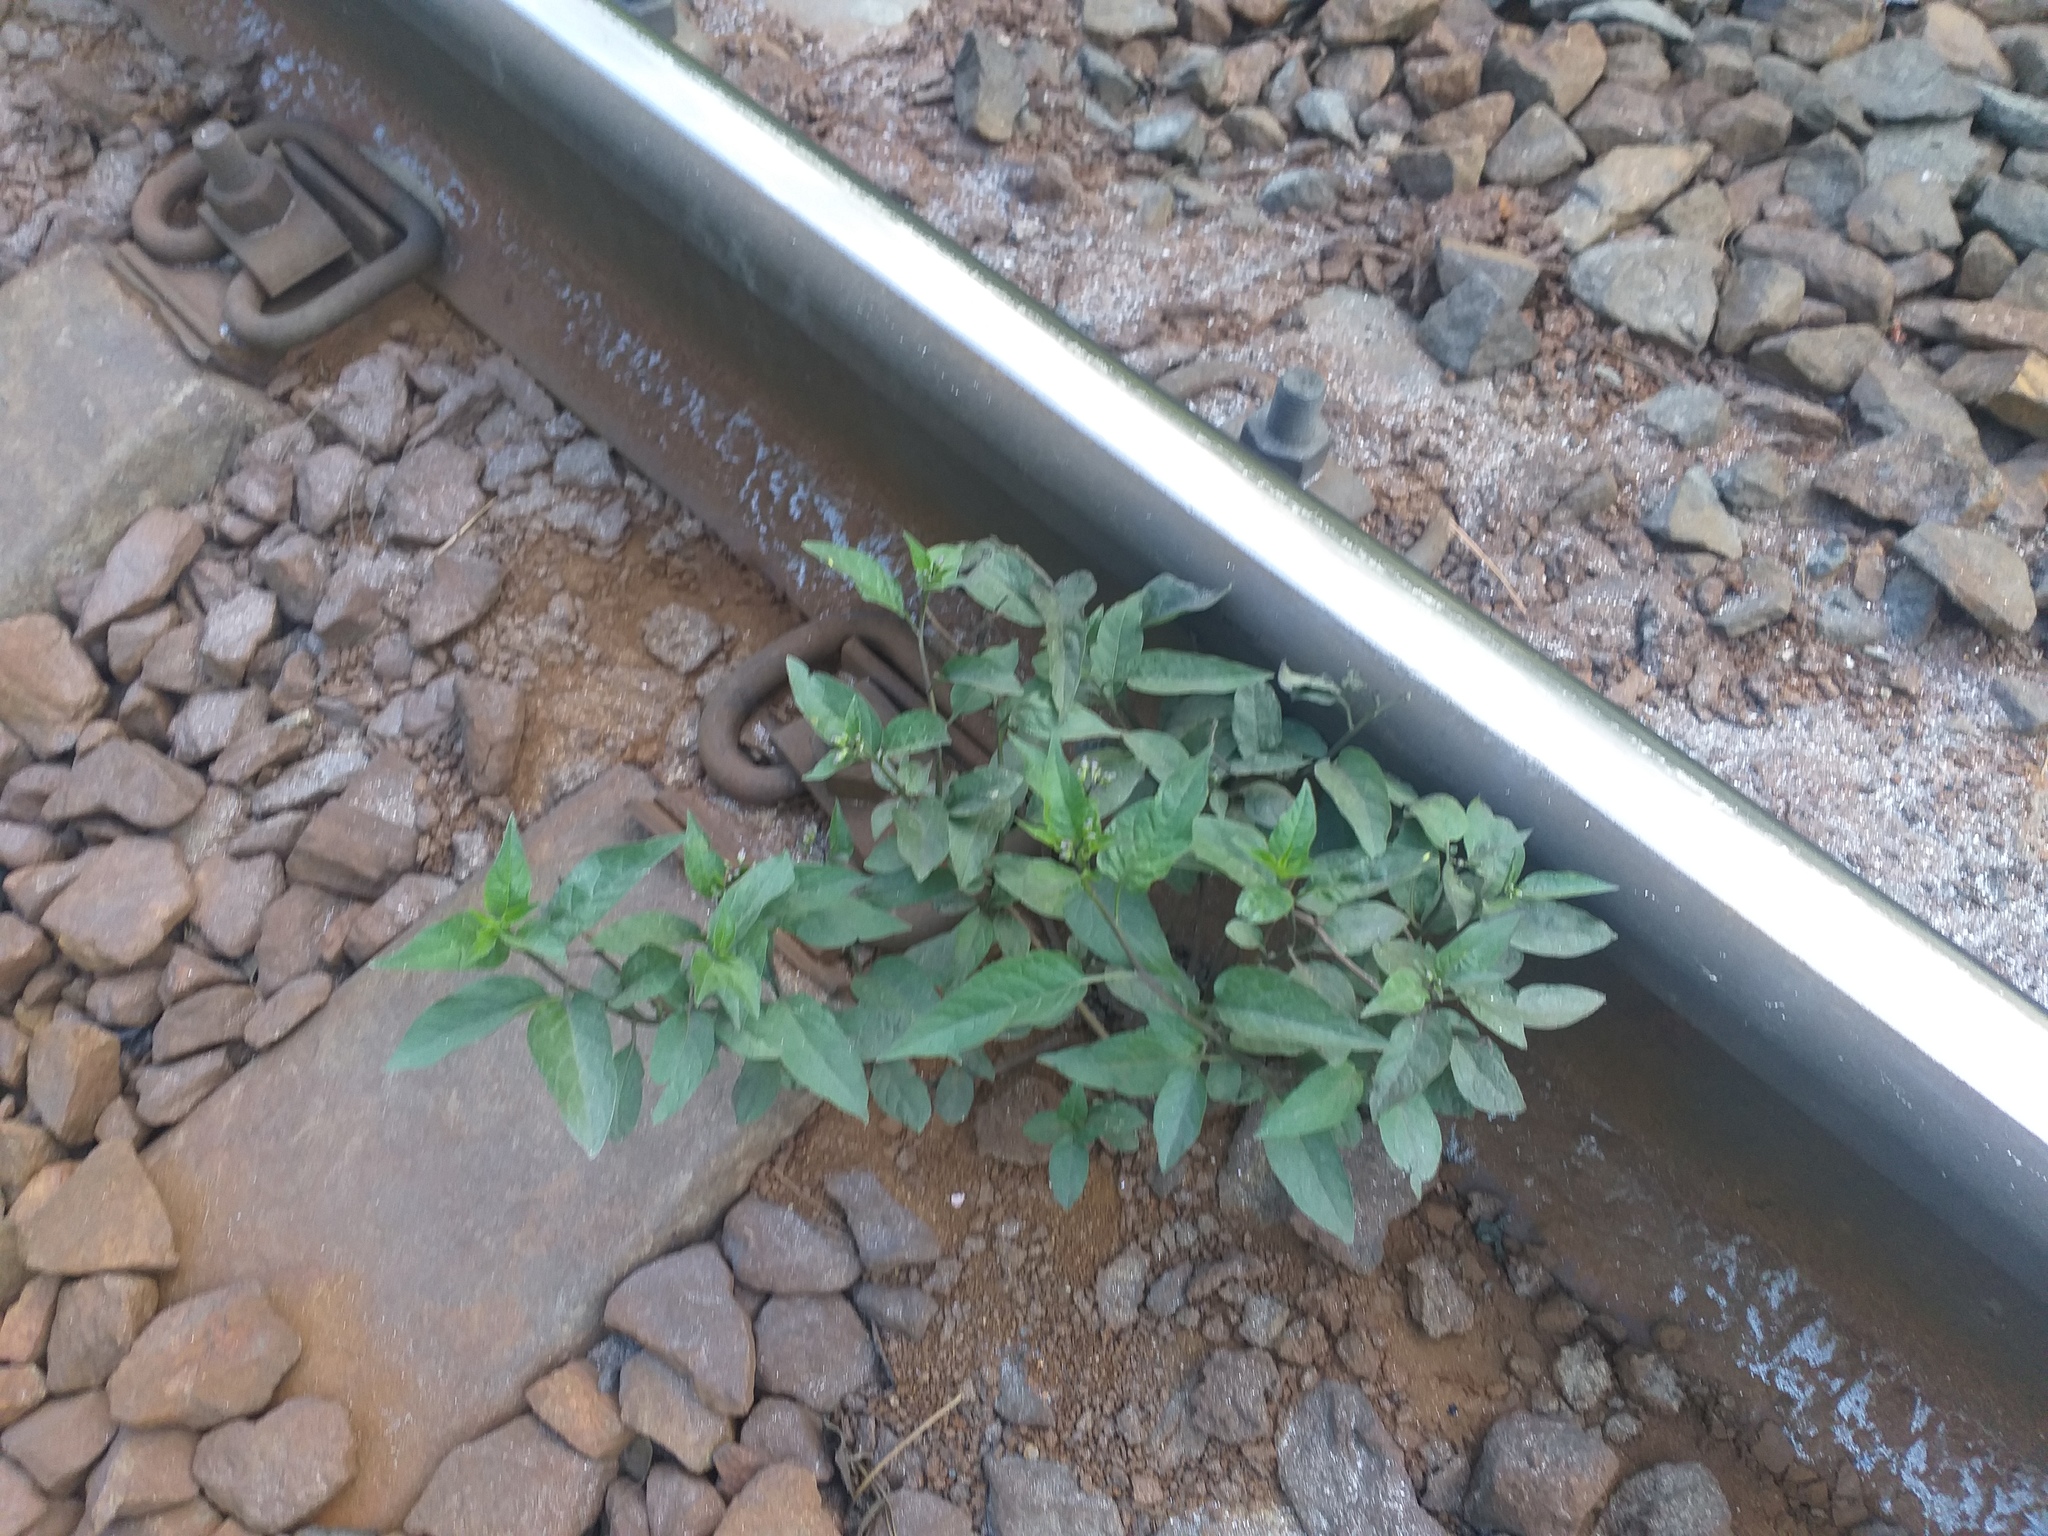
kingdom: Plantae
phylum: Tracheophyta
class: Magnoliopsida
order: Solanales
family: Solanaceae
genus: Solanum
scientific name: Solanum dulcamara
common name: Climbing nightshade
